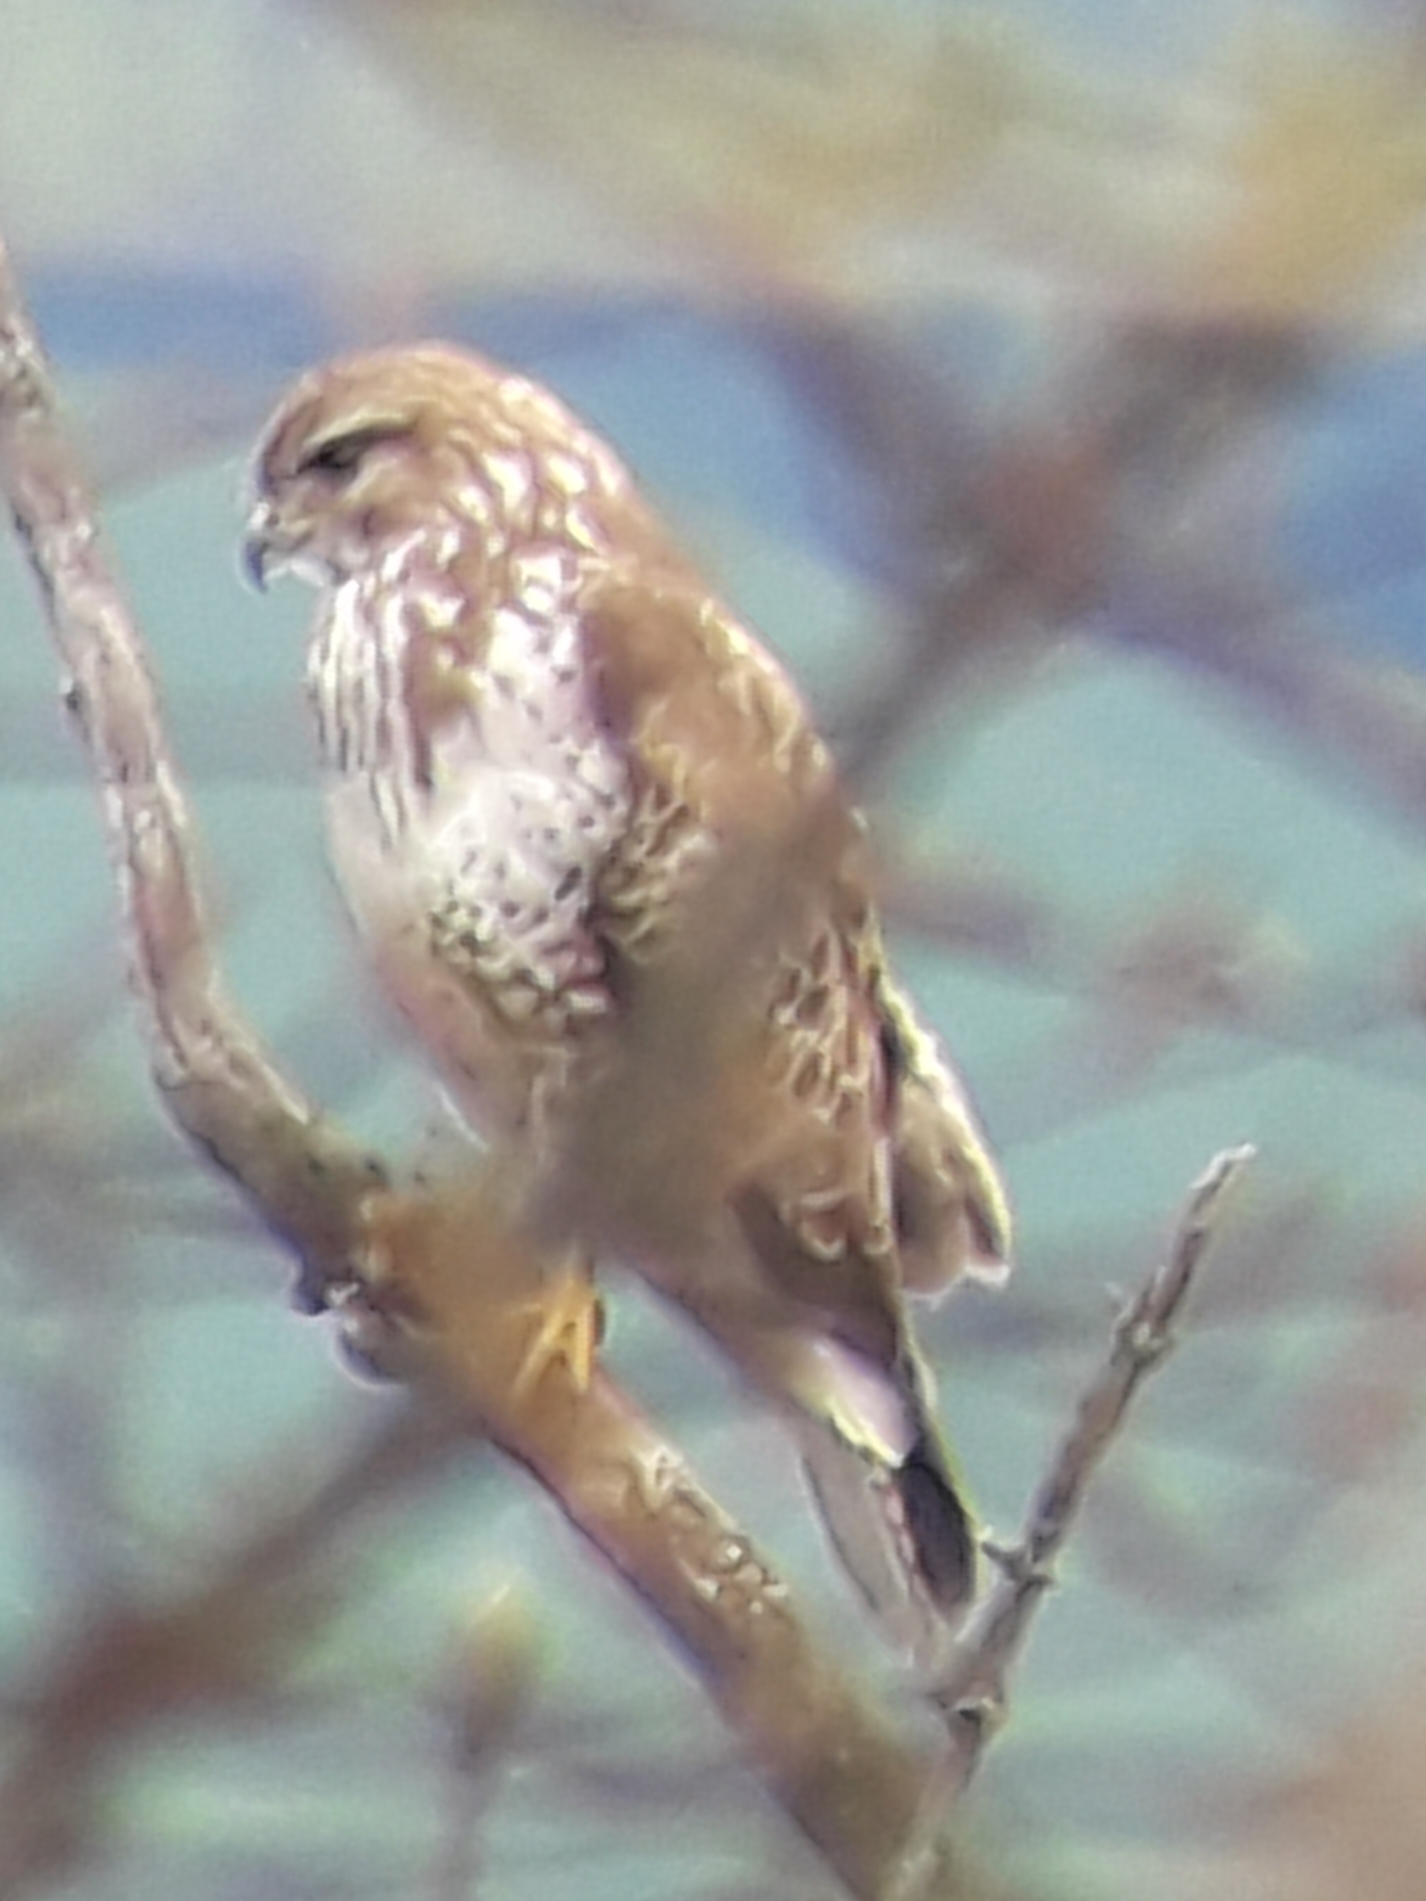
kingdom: Animalia
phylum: Chordata
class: Aves
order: Accipitriformes
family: Accipitridae
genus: Buteo
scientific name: Buteo buteo
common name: Common buzzard
